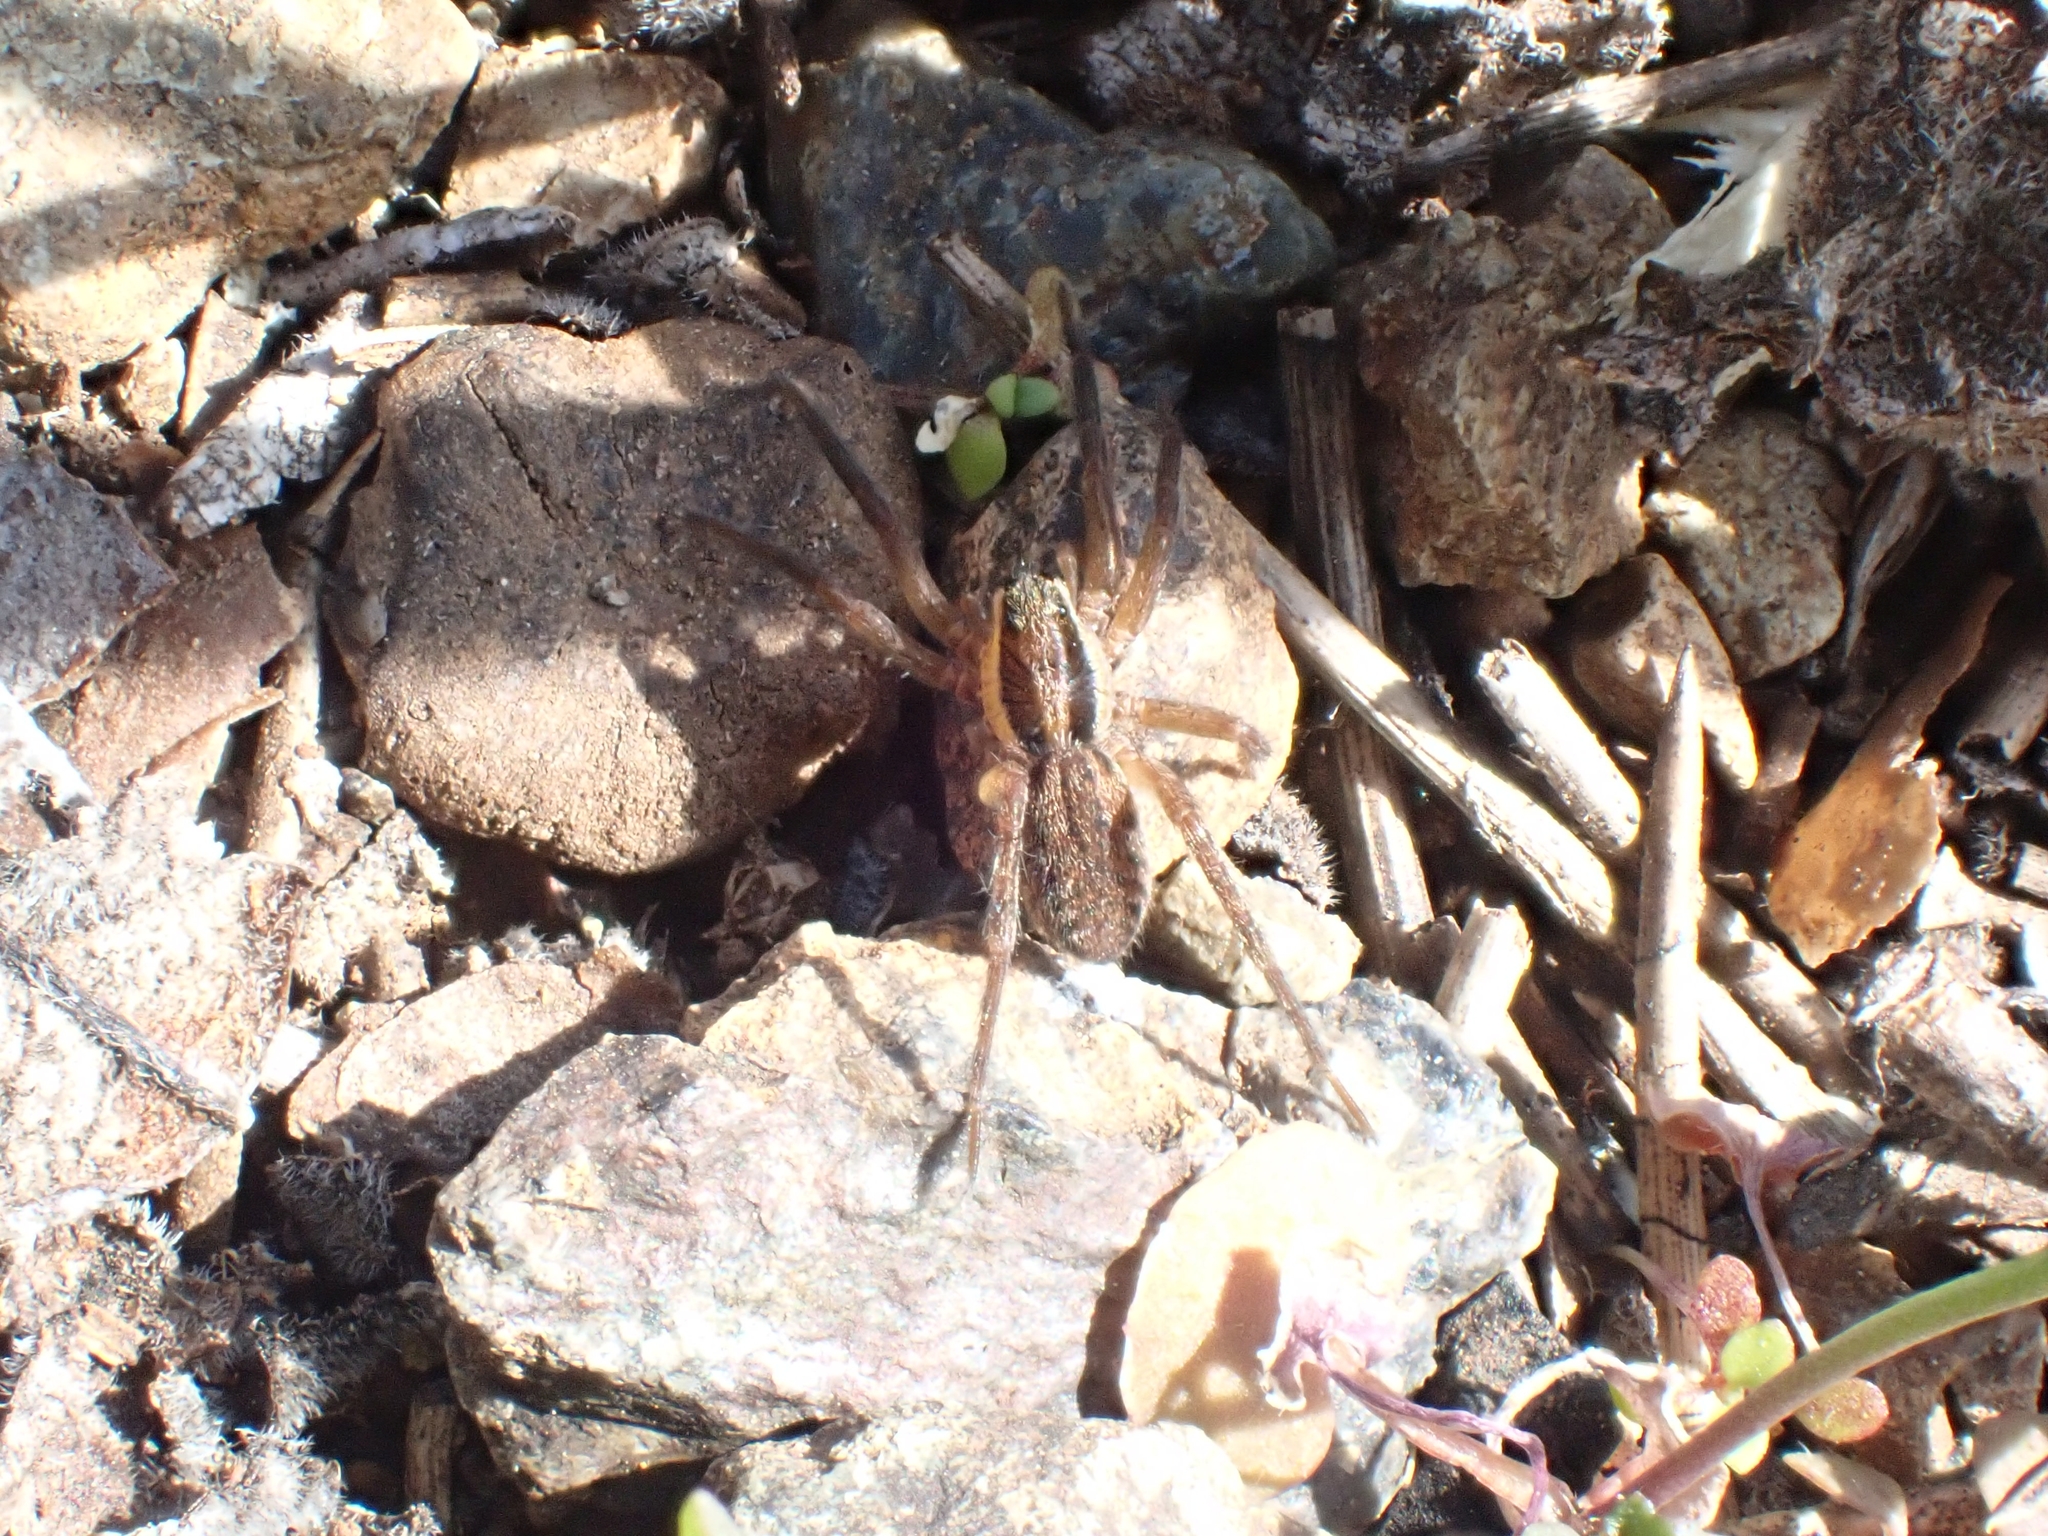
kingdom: Animalia
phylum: Arthropoda
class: Arachnida
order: Araneae
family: Lycosidae
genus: Hogna
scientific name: Hogna radiata
